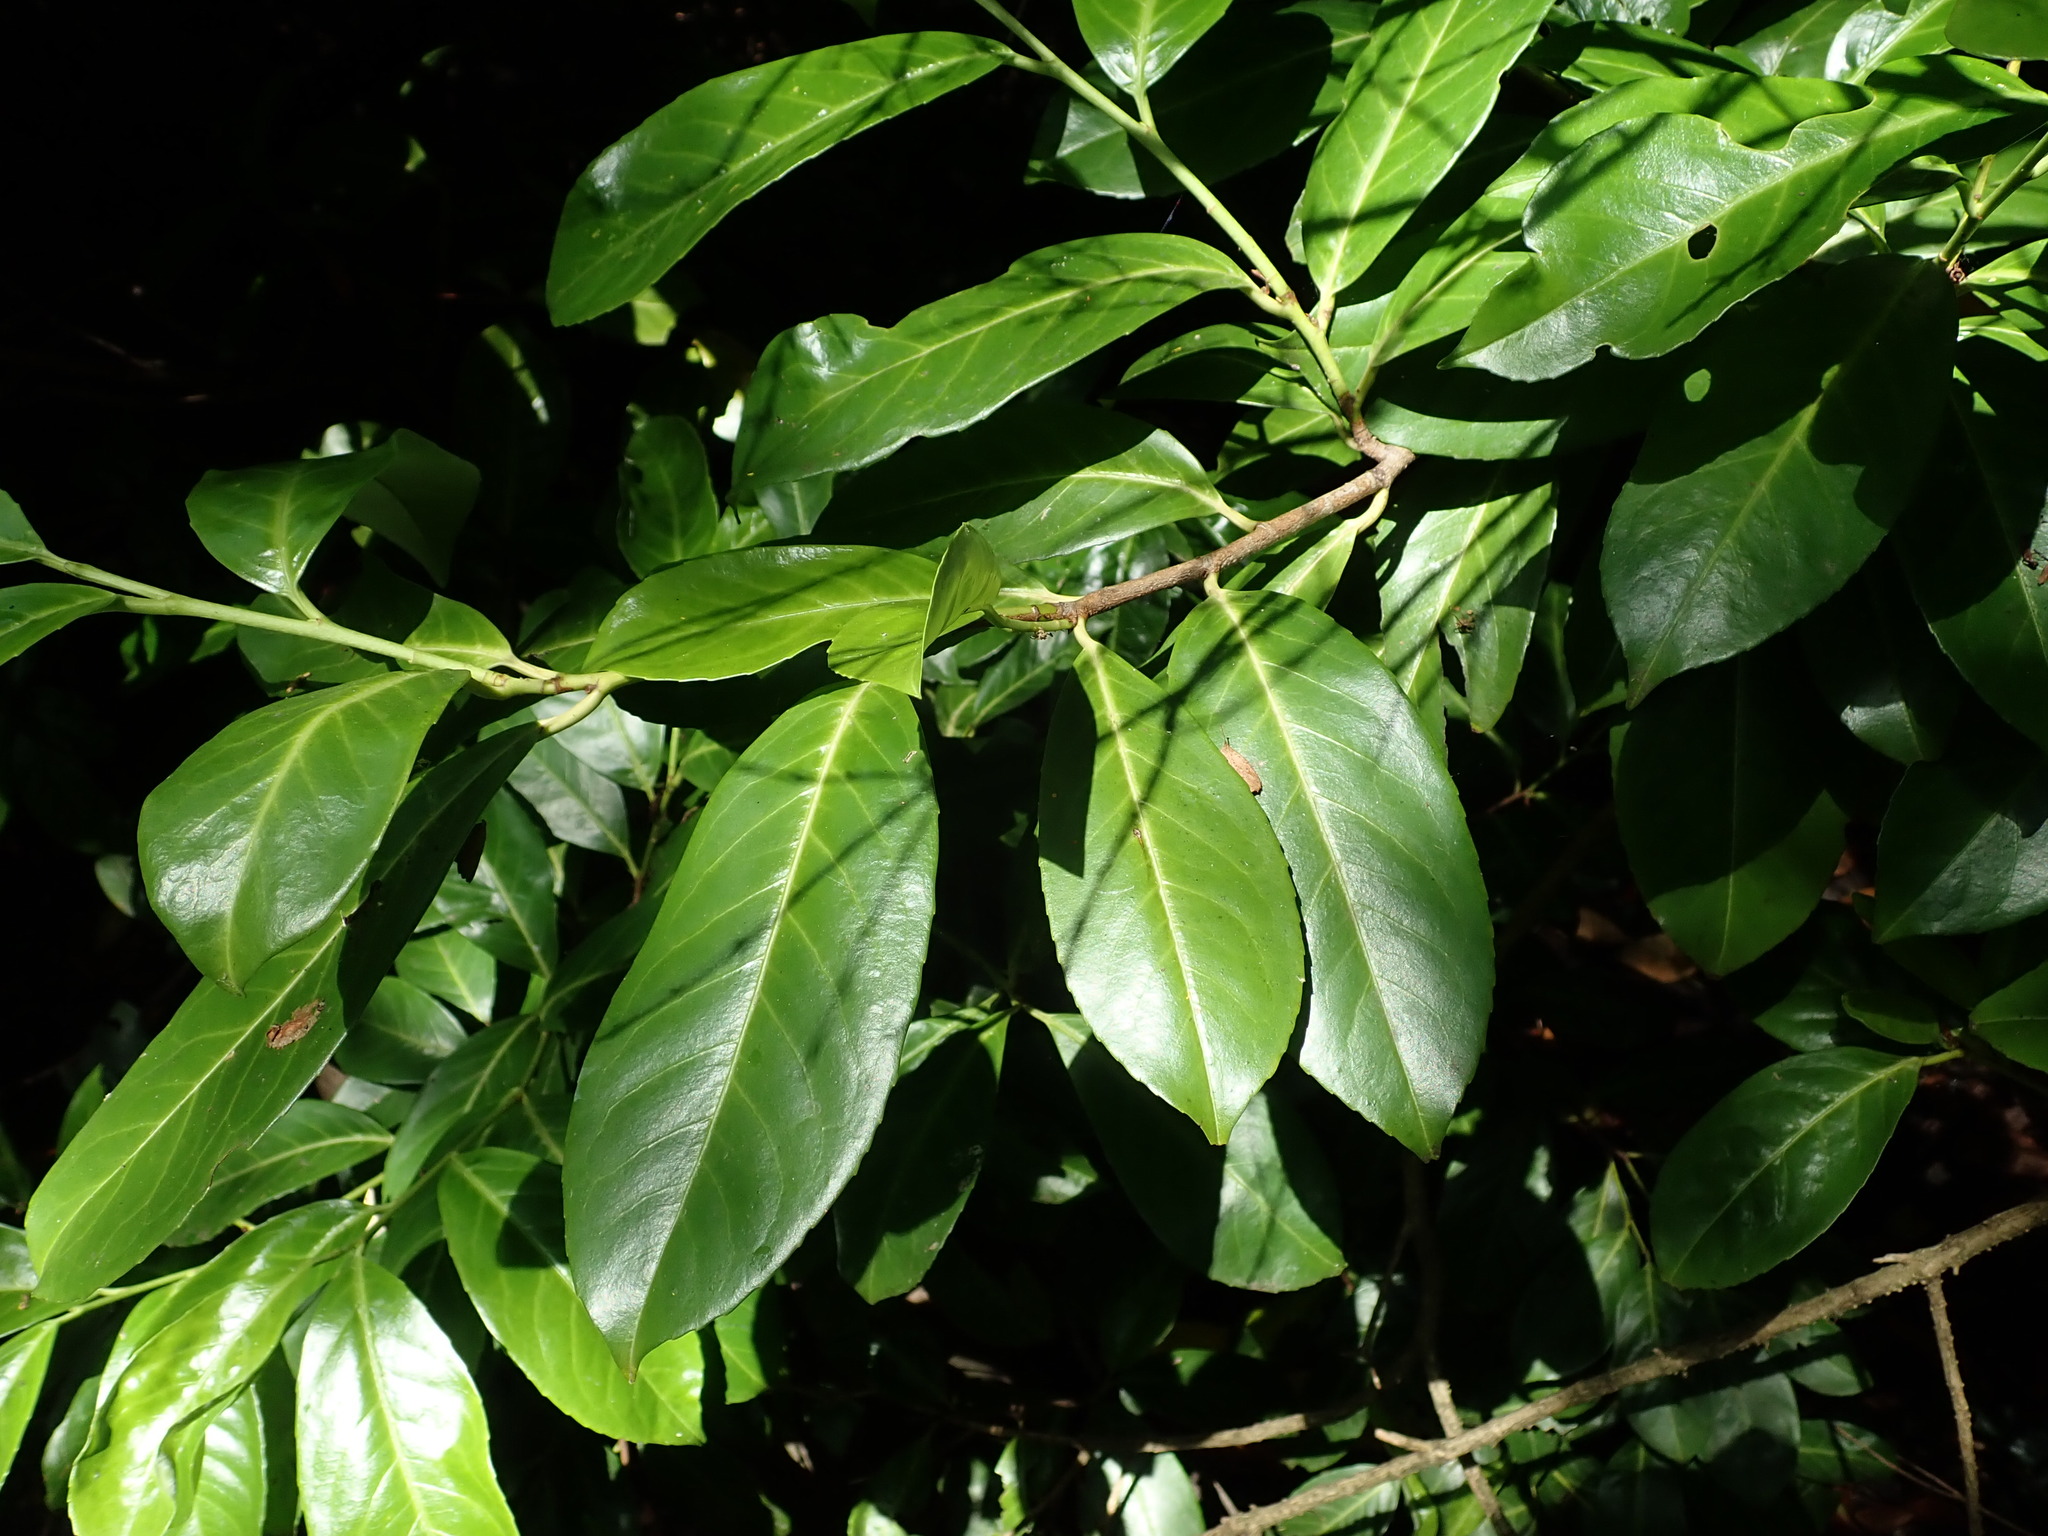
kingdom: Plantae
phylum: Tracheophyta
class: Magnoliopsida
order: Rosales
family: Rosaceae
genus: Prunus
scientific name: Prunus laurocerasus
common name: Cherry laurel
